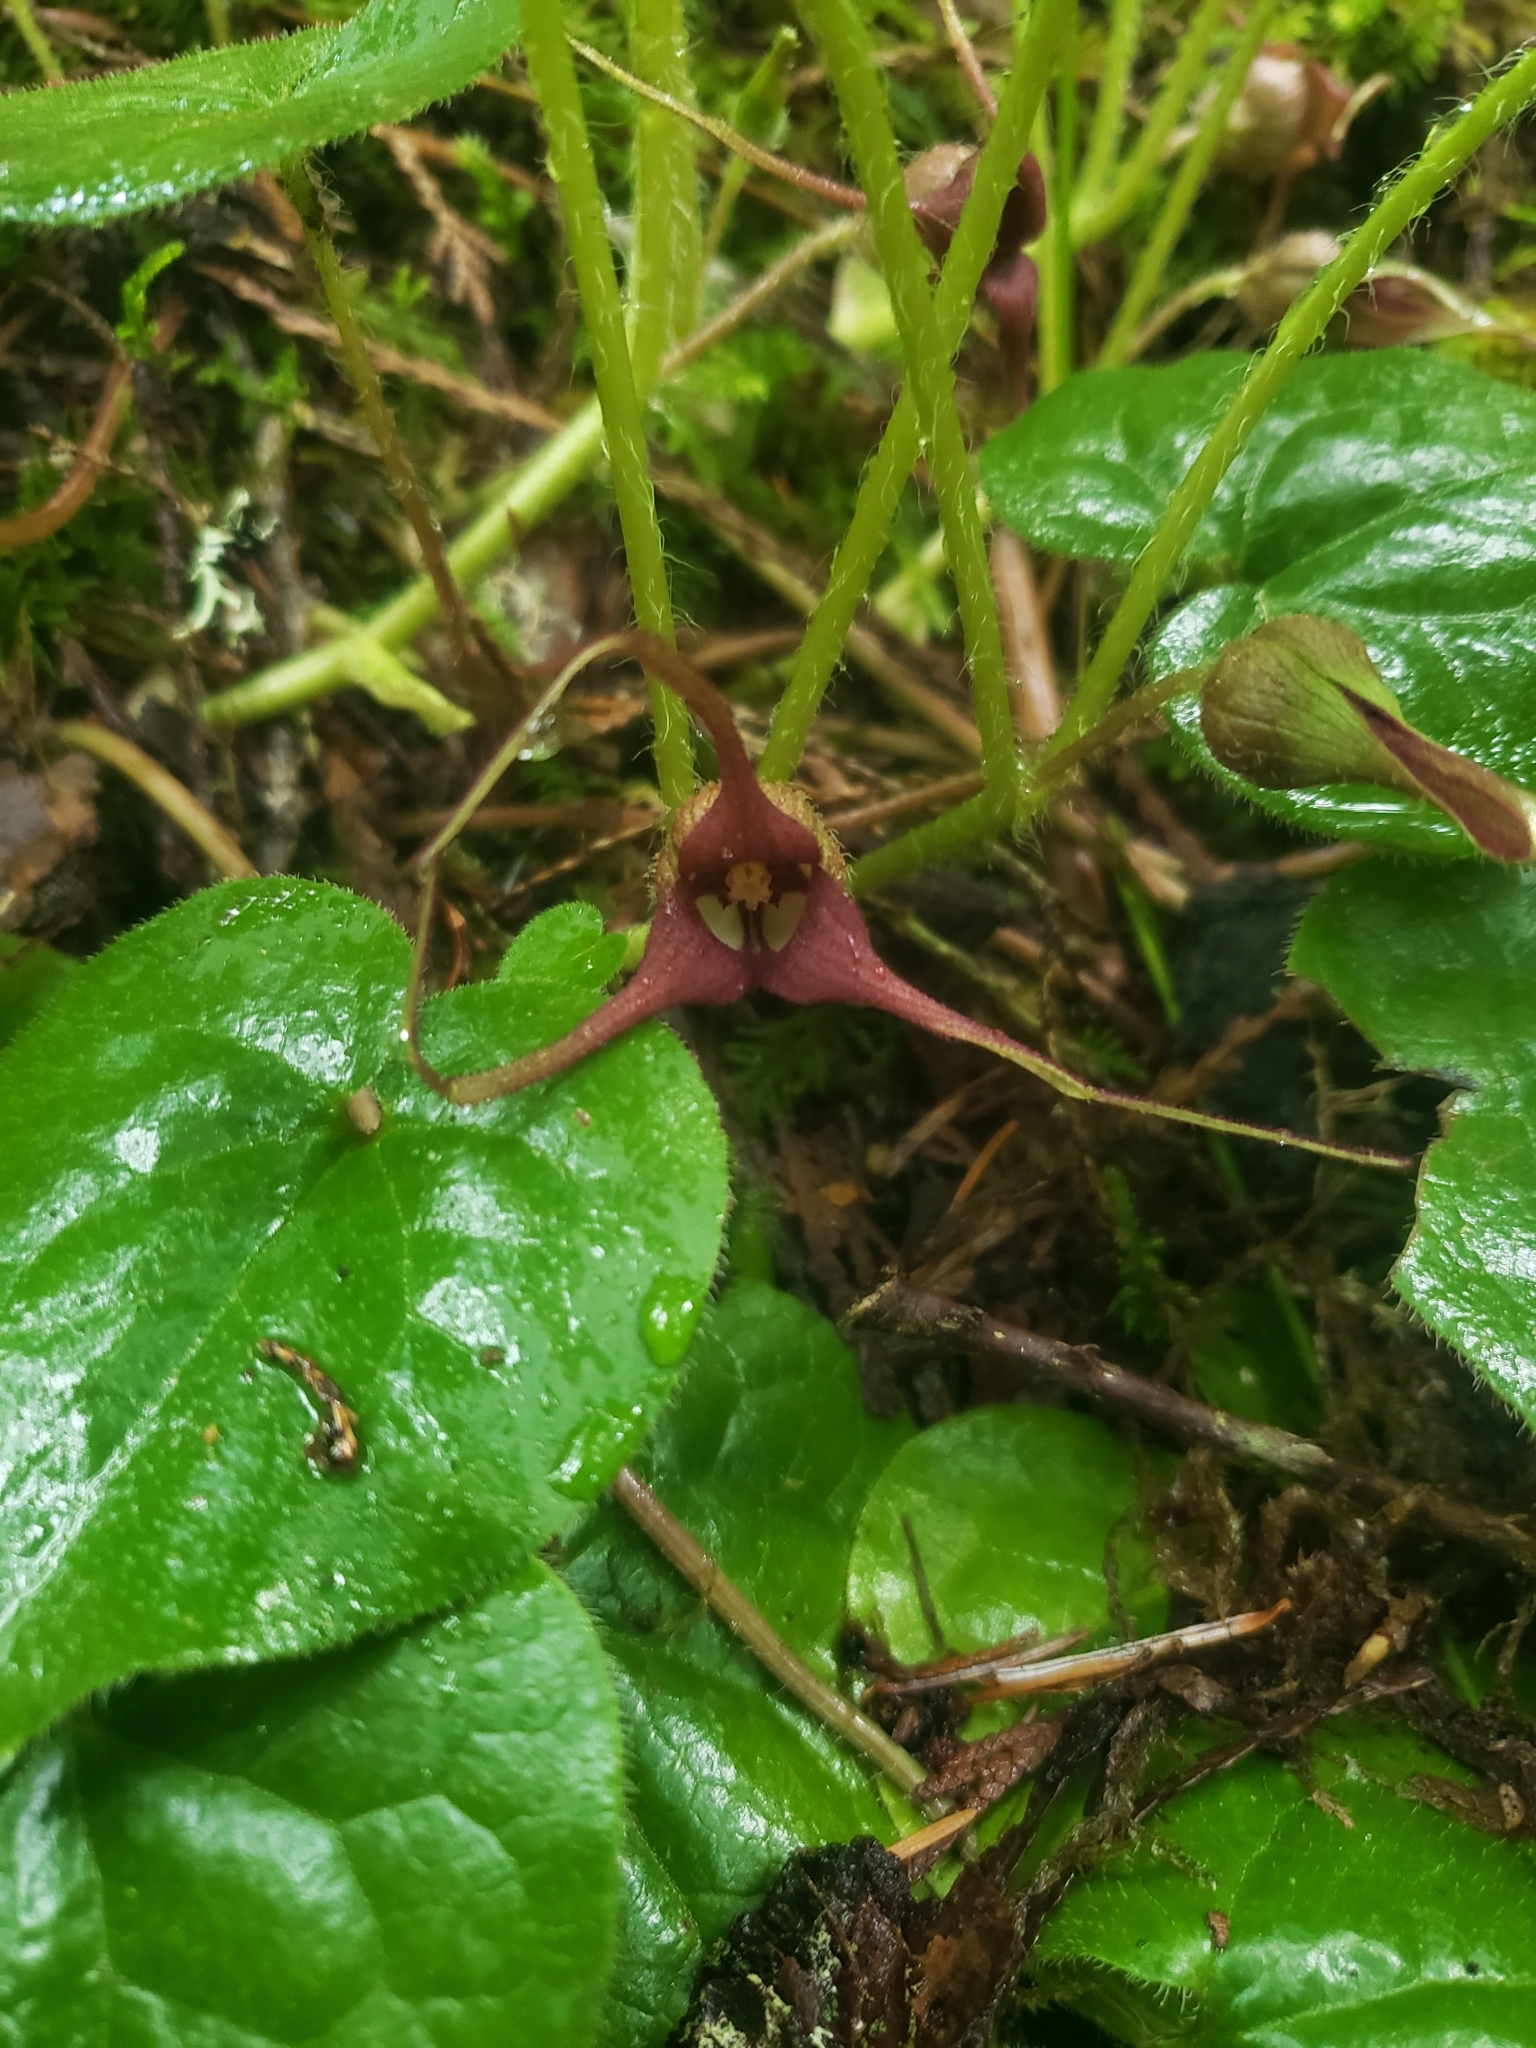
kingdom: Plantae
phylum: Tracheophyta
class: Magnoliopsida
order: Piperales
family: Aristolochiaceae
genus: Asarum
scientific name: Asarum caudatum
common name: Wild ginger
